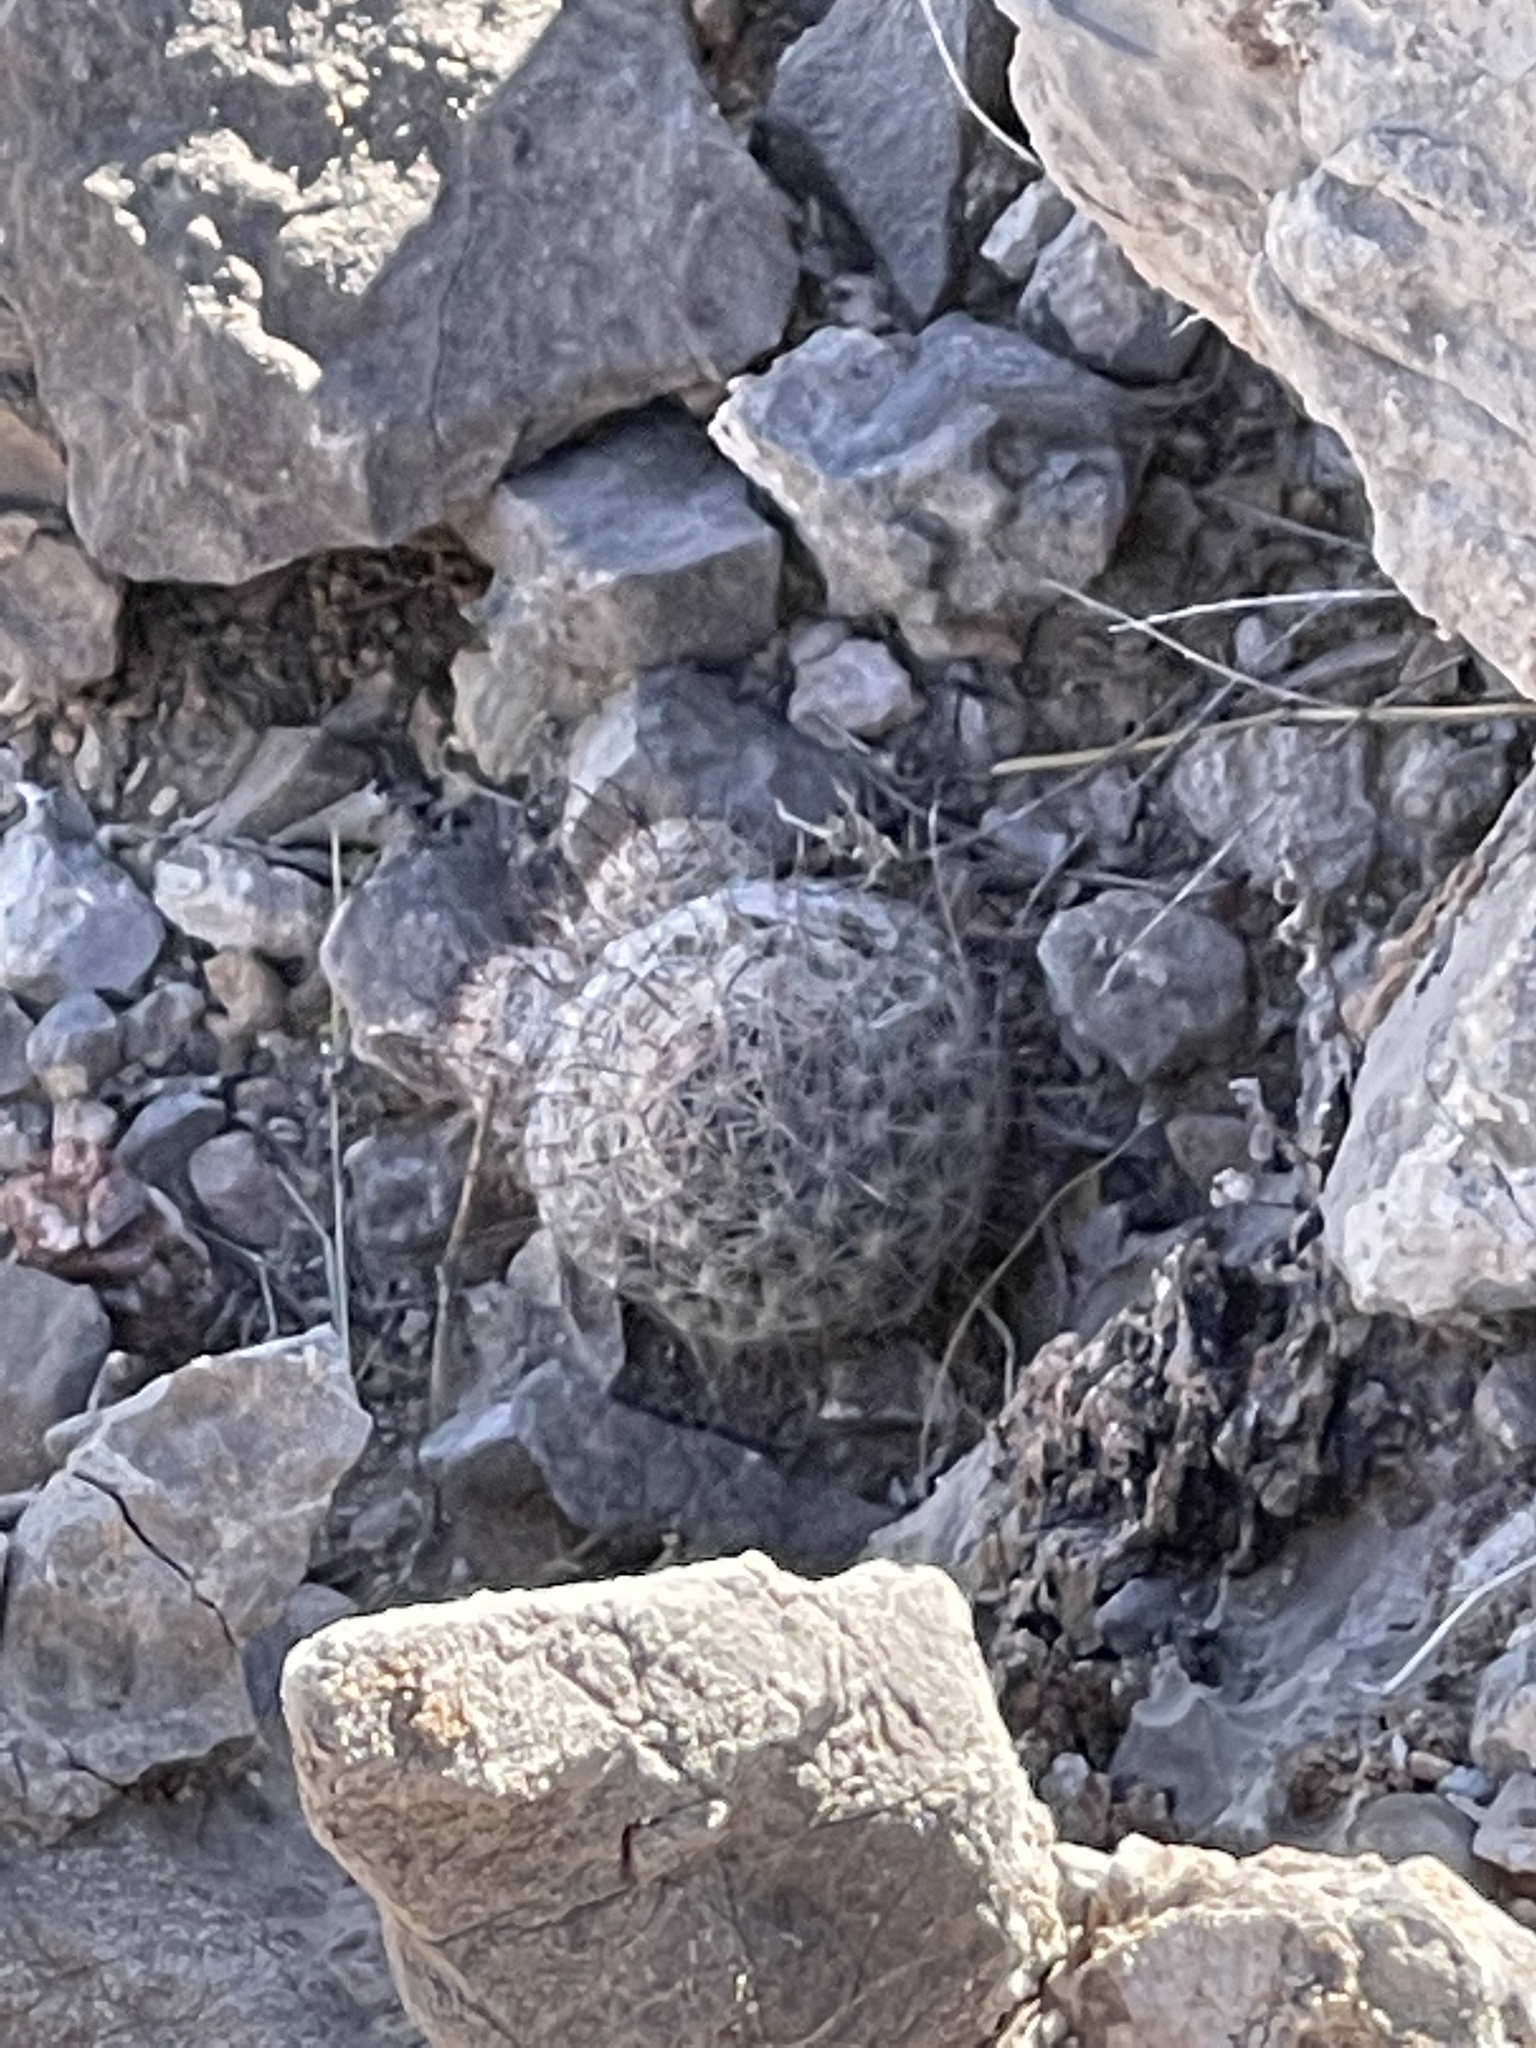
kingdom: Plantae
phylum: Tracheophyta
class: Magnoliopsida
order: Caryophyllales
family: Cactaceae
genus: Cochemiea
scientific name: Cochemiea grahamii
